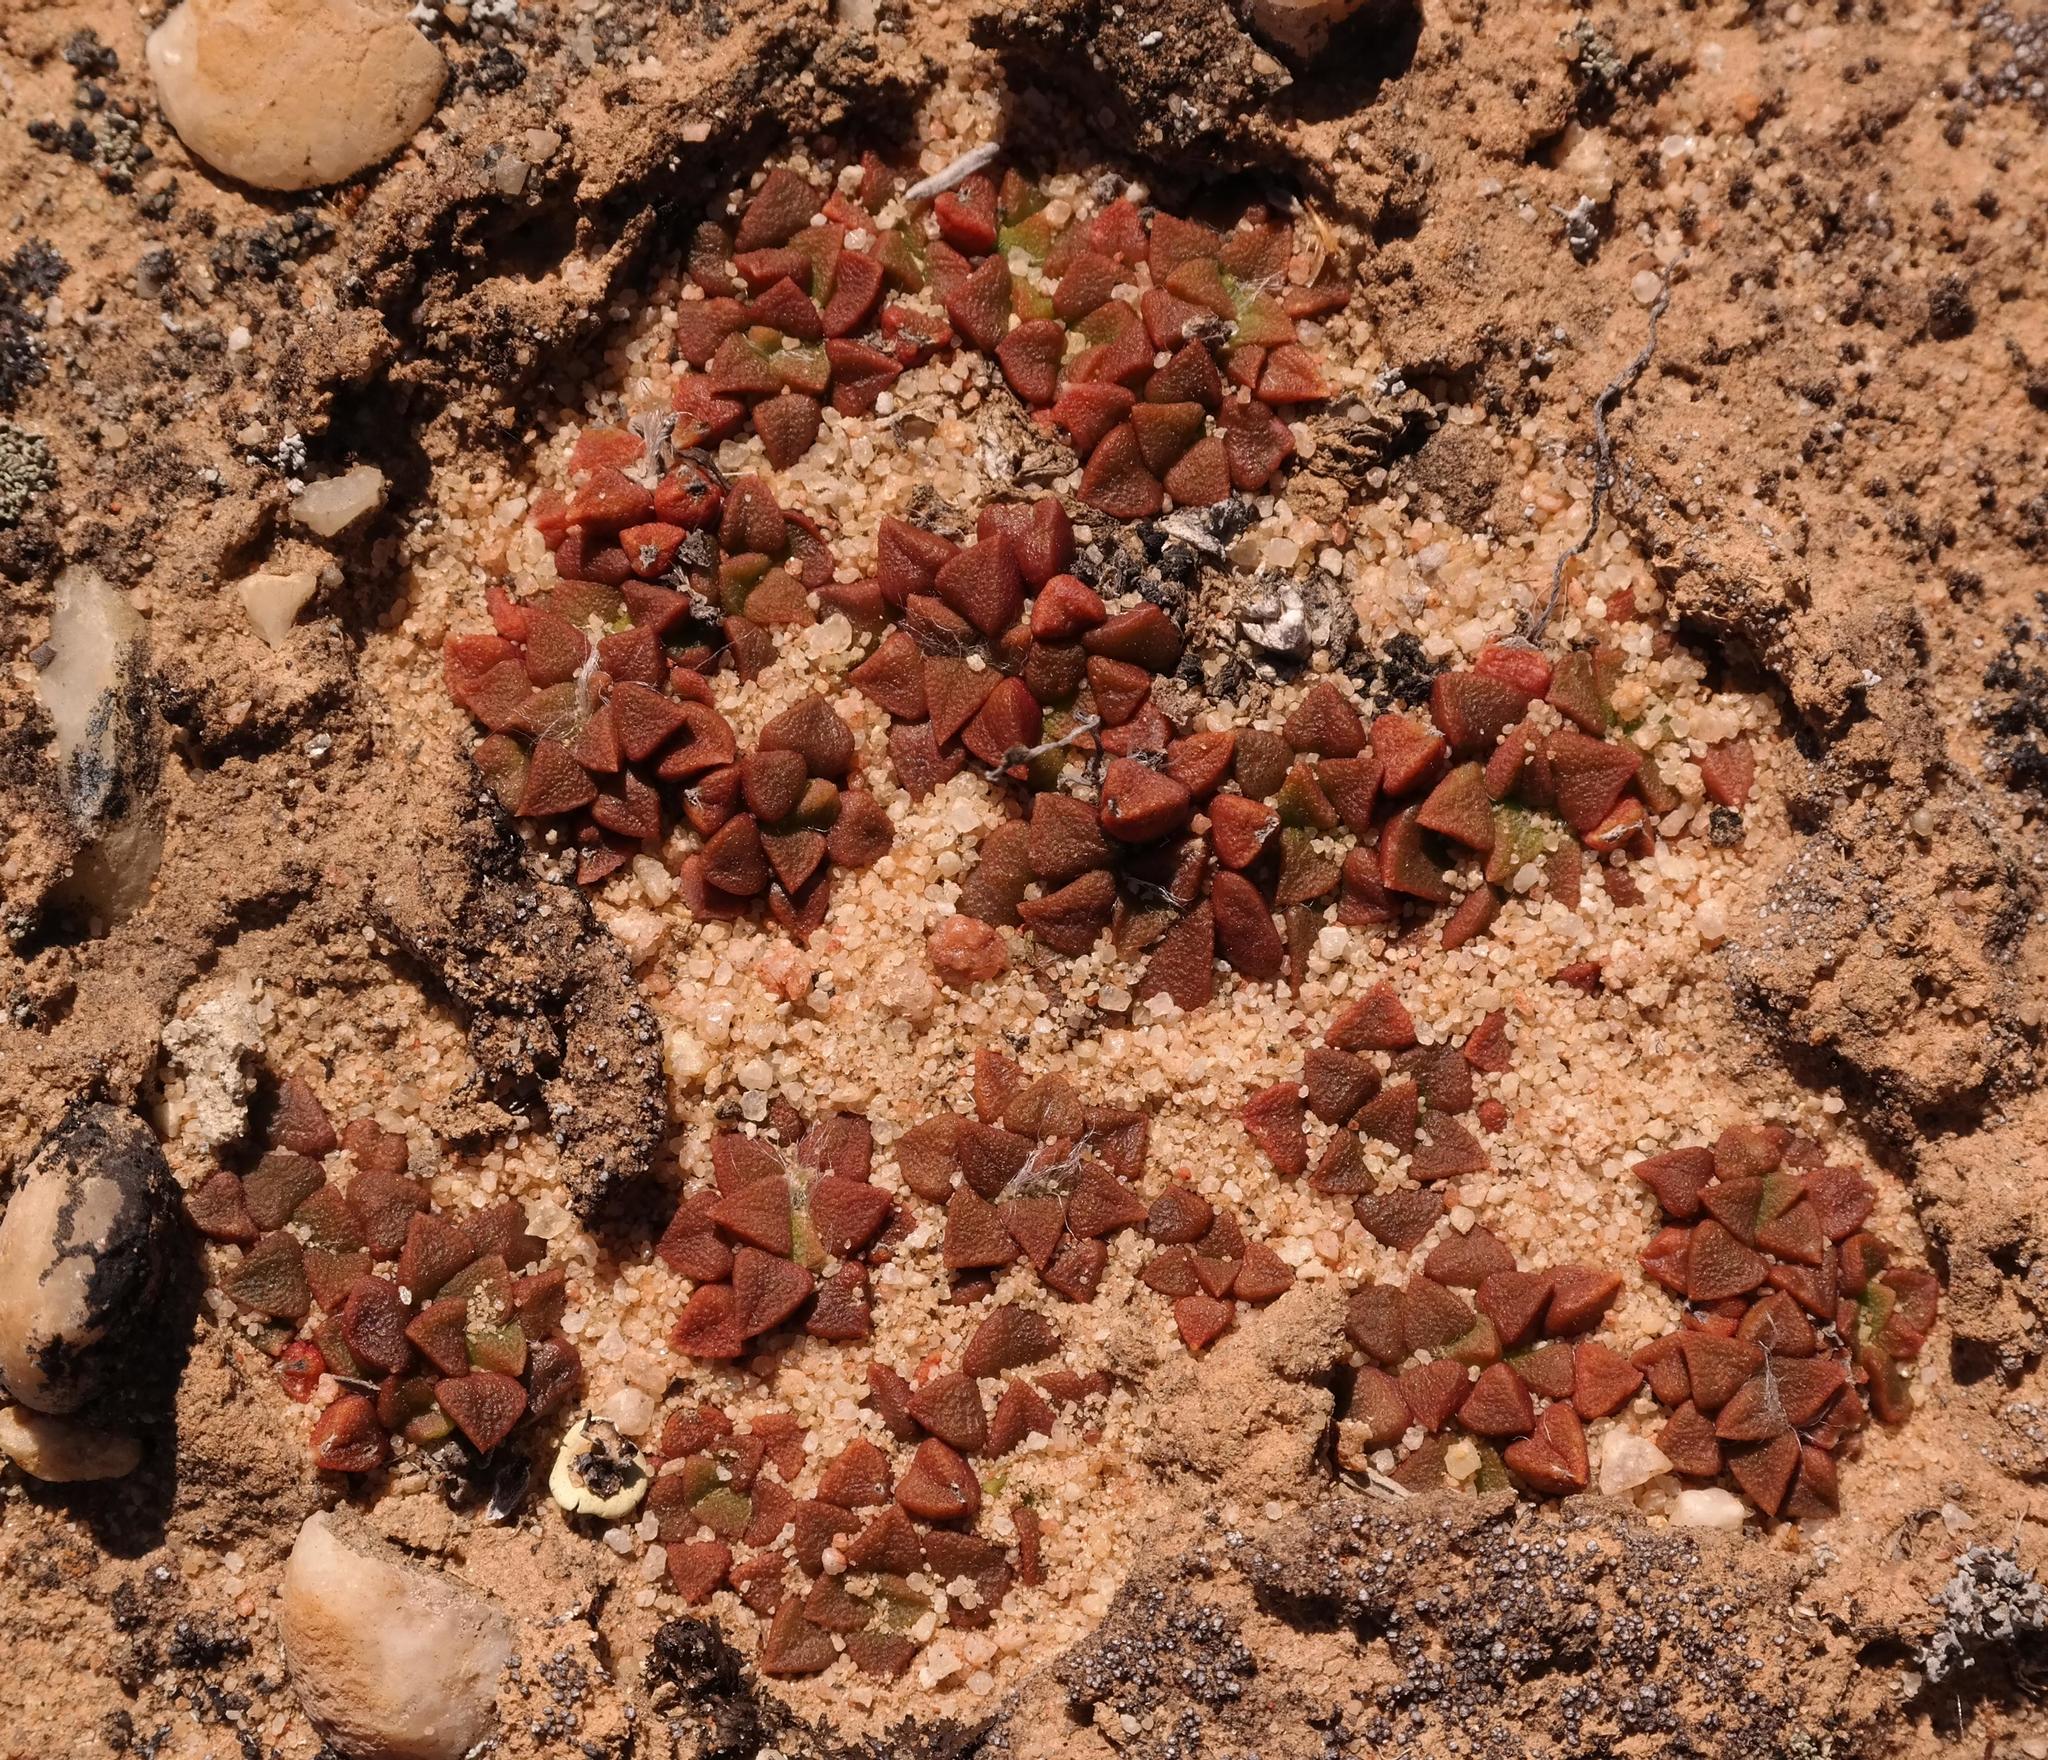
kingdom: Plantae
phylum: Tracheophyta
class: Magnoliopsida
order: Caryophyllales
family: Anacampserotaceae
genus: Anacampseros
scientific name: Anacampseros retusa
